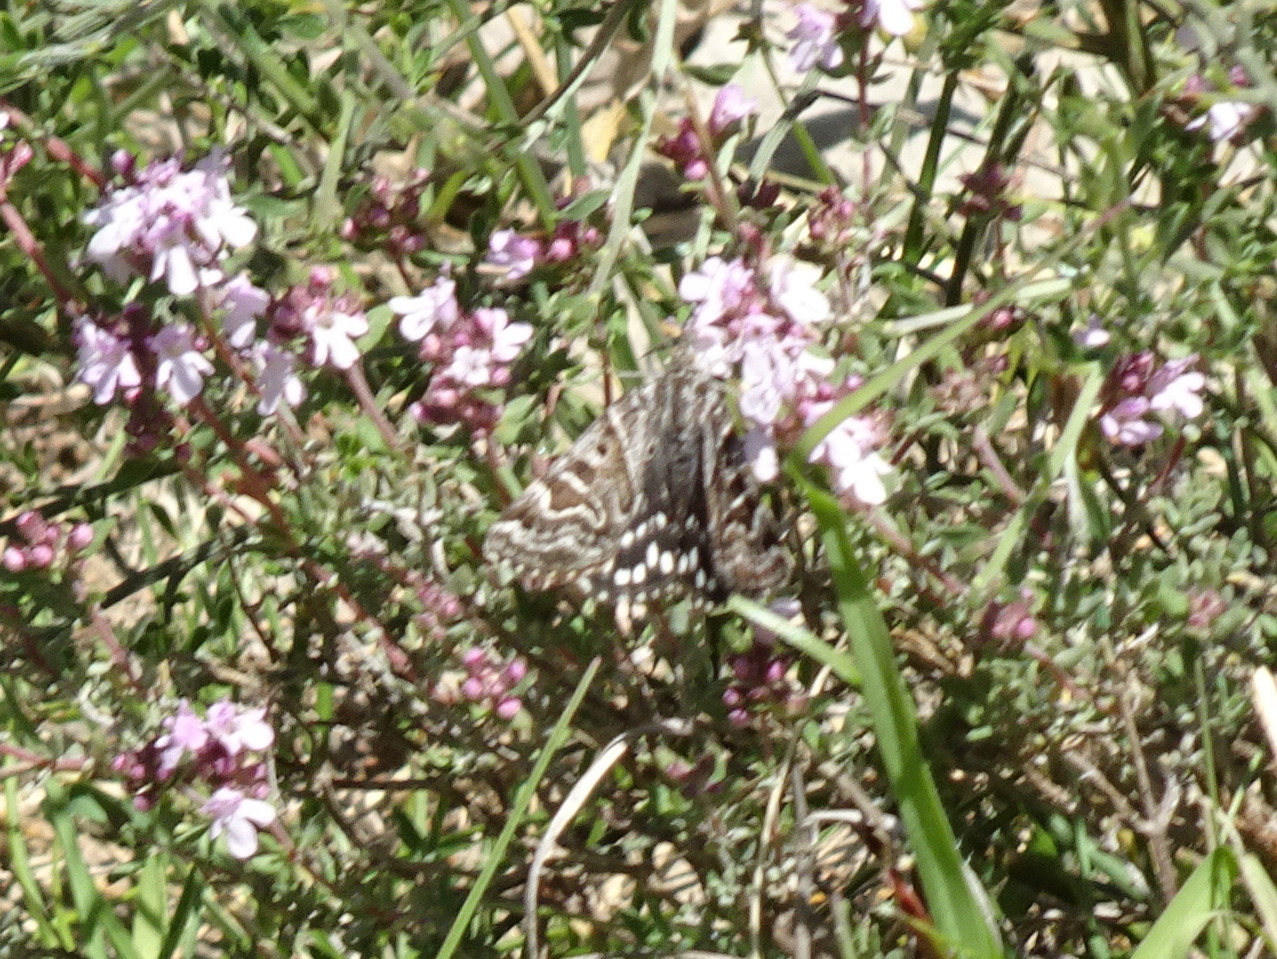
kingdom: Animalia
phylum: Arthropoda
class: Insecta
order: Lepidoptera
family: Erebidae
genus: Callistege
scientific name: Callistege mi
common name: Mother shipton
